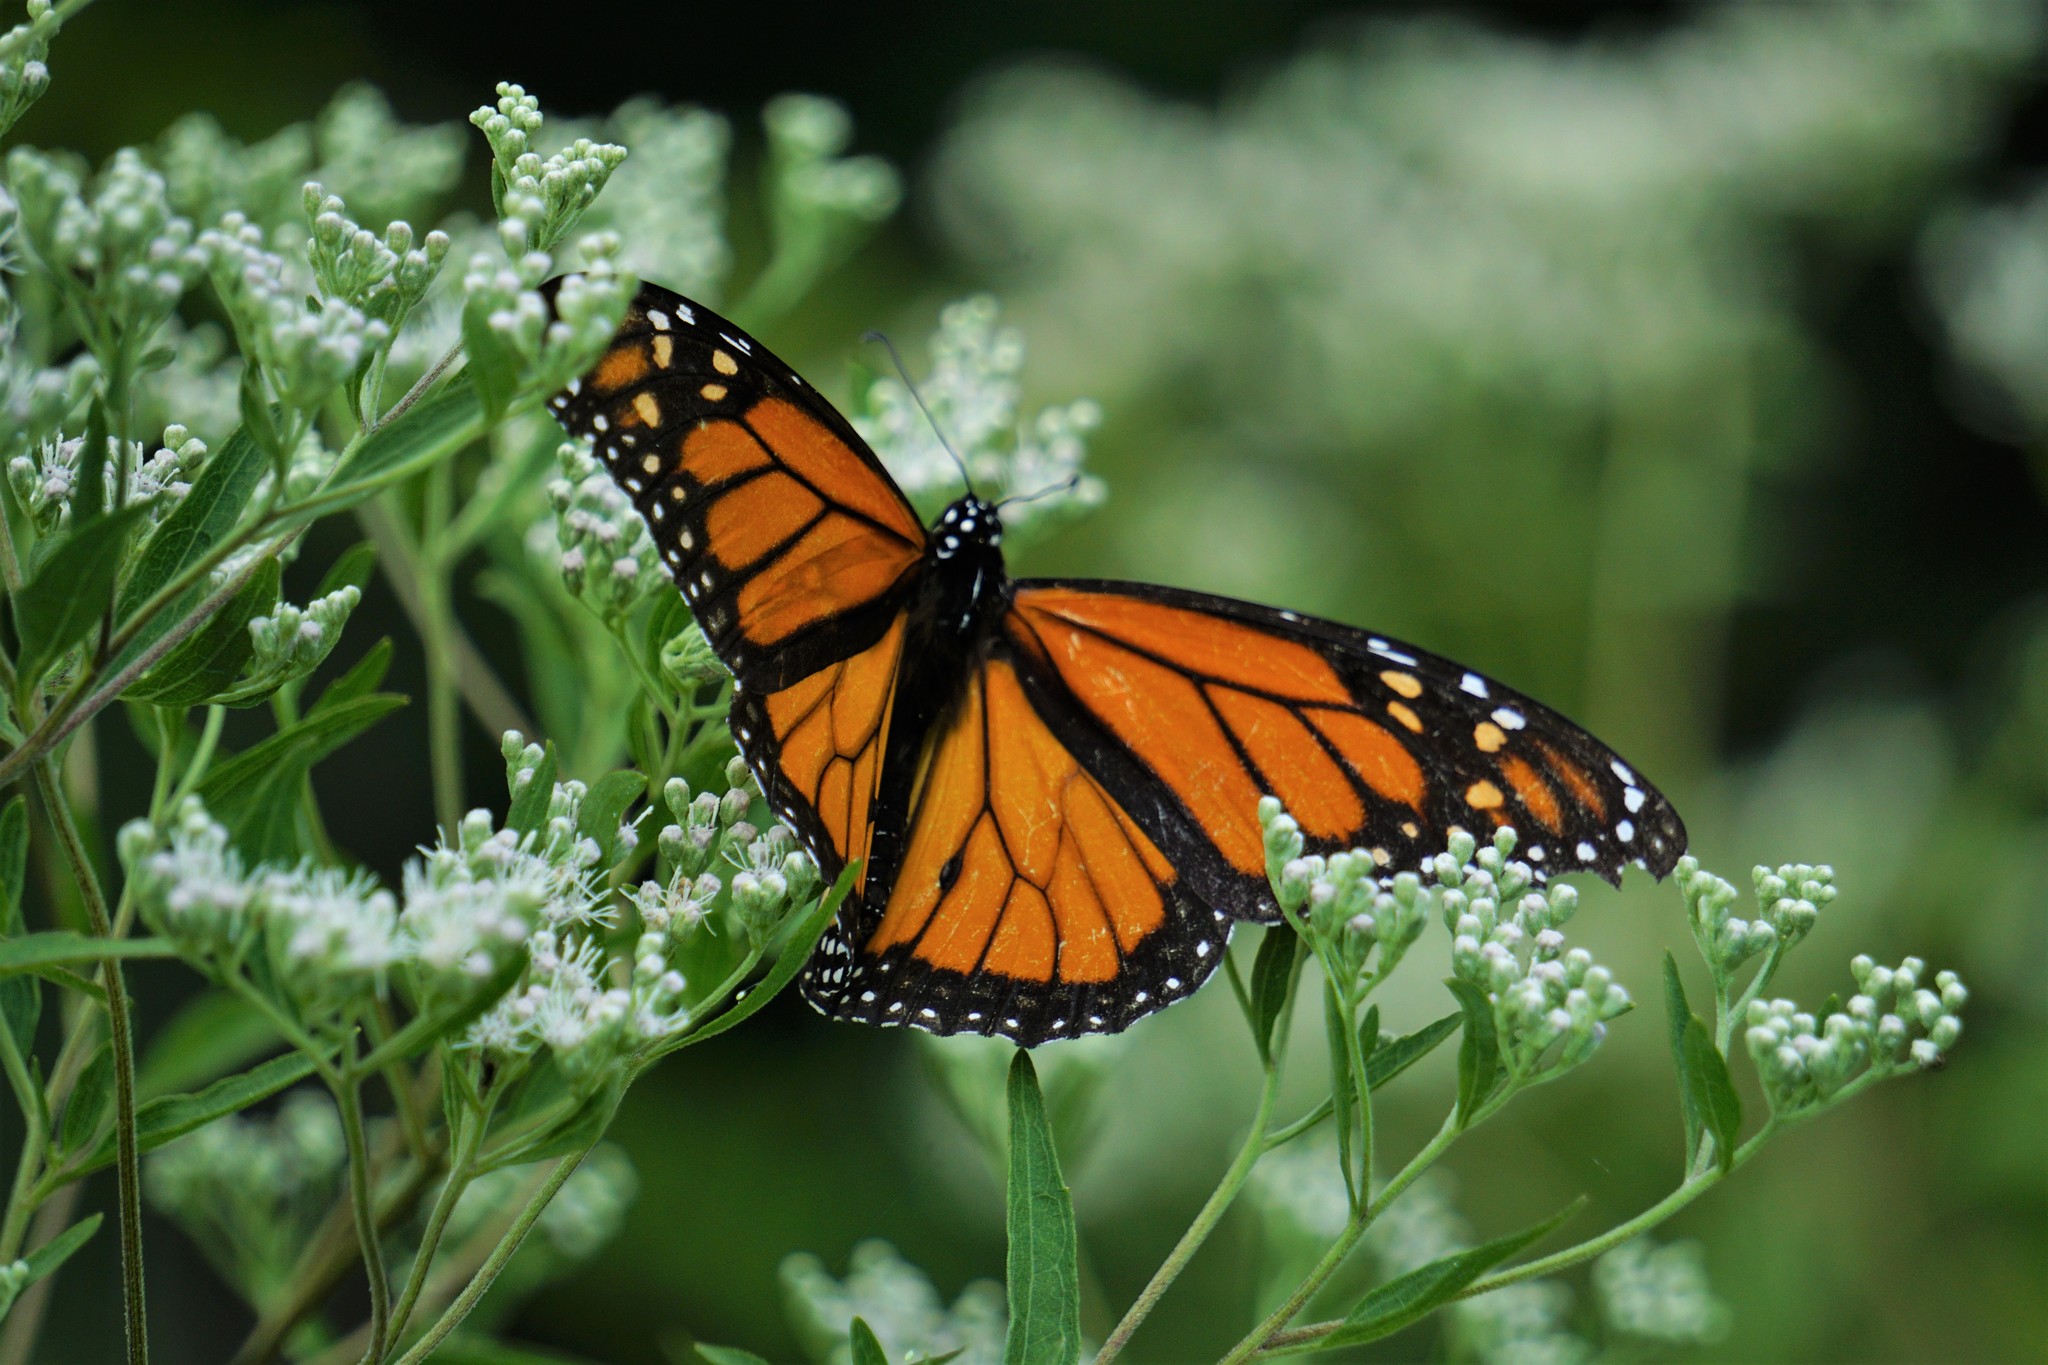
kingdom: Animalia
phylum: Arthropoda
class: Insecta
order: Lepidoptera
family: Nymphalidae
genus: Danaus
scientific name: Danaus plexippus
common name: Monarch
